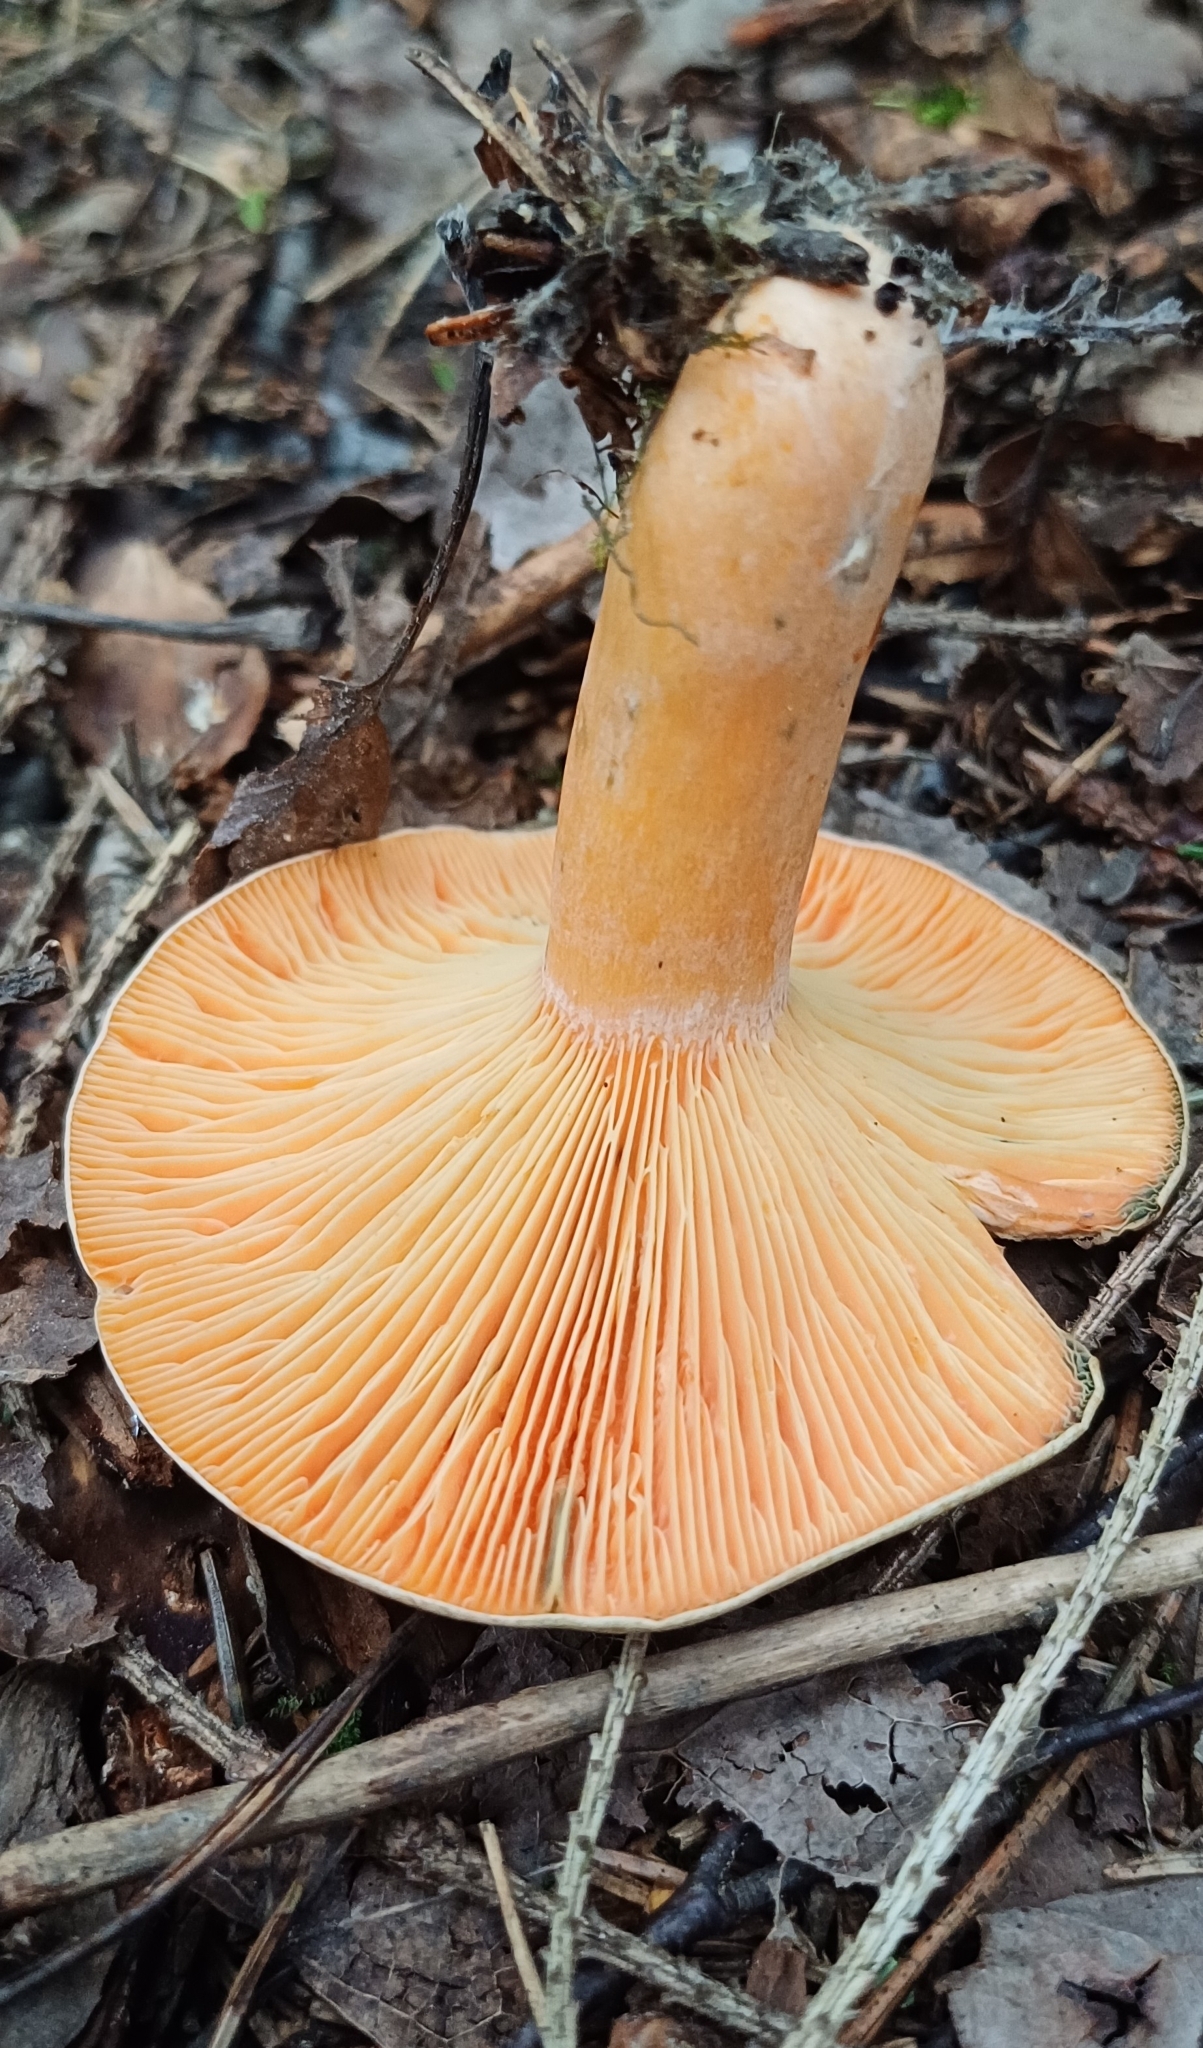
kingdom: Fungi
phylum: Basidiomycota
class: Agaricomycetes
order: Russulales
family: Russulaceae
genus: Lactarius
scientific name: Lactarius deterrimus
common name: False saffron milkcap
